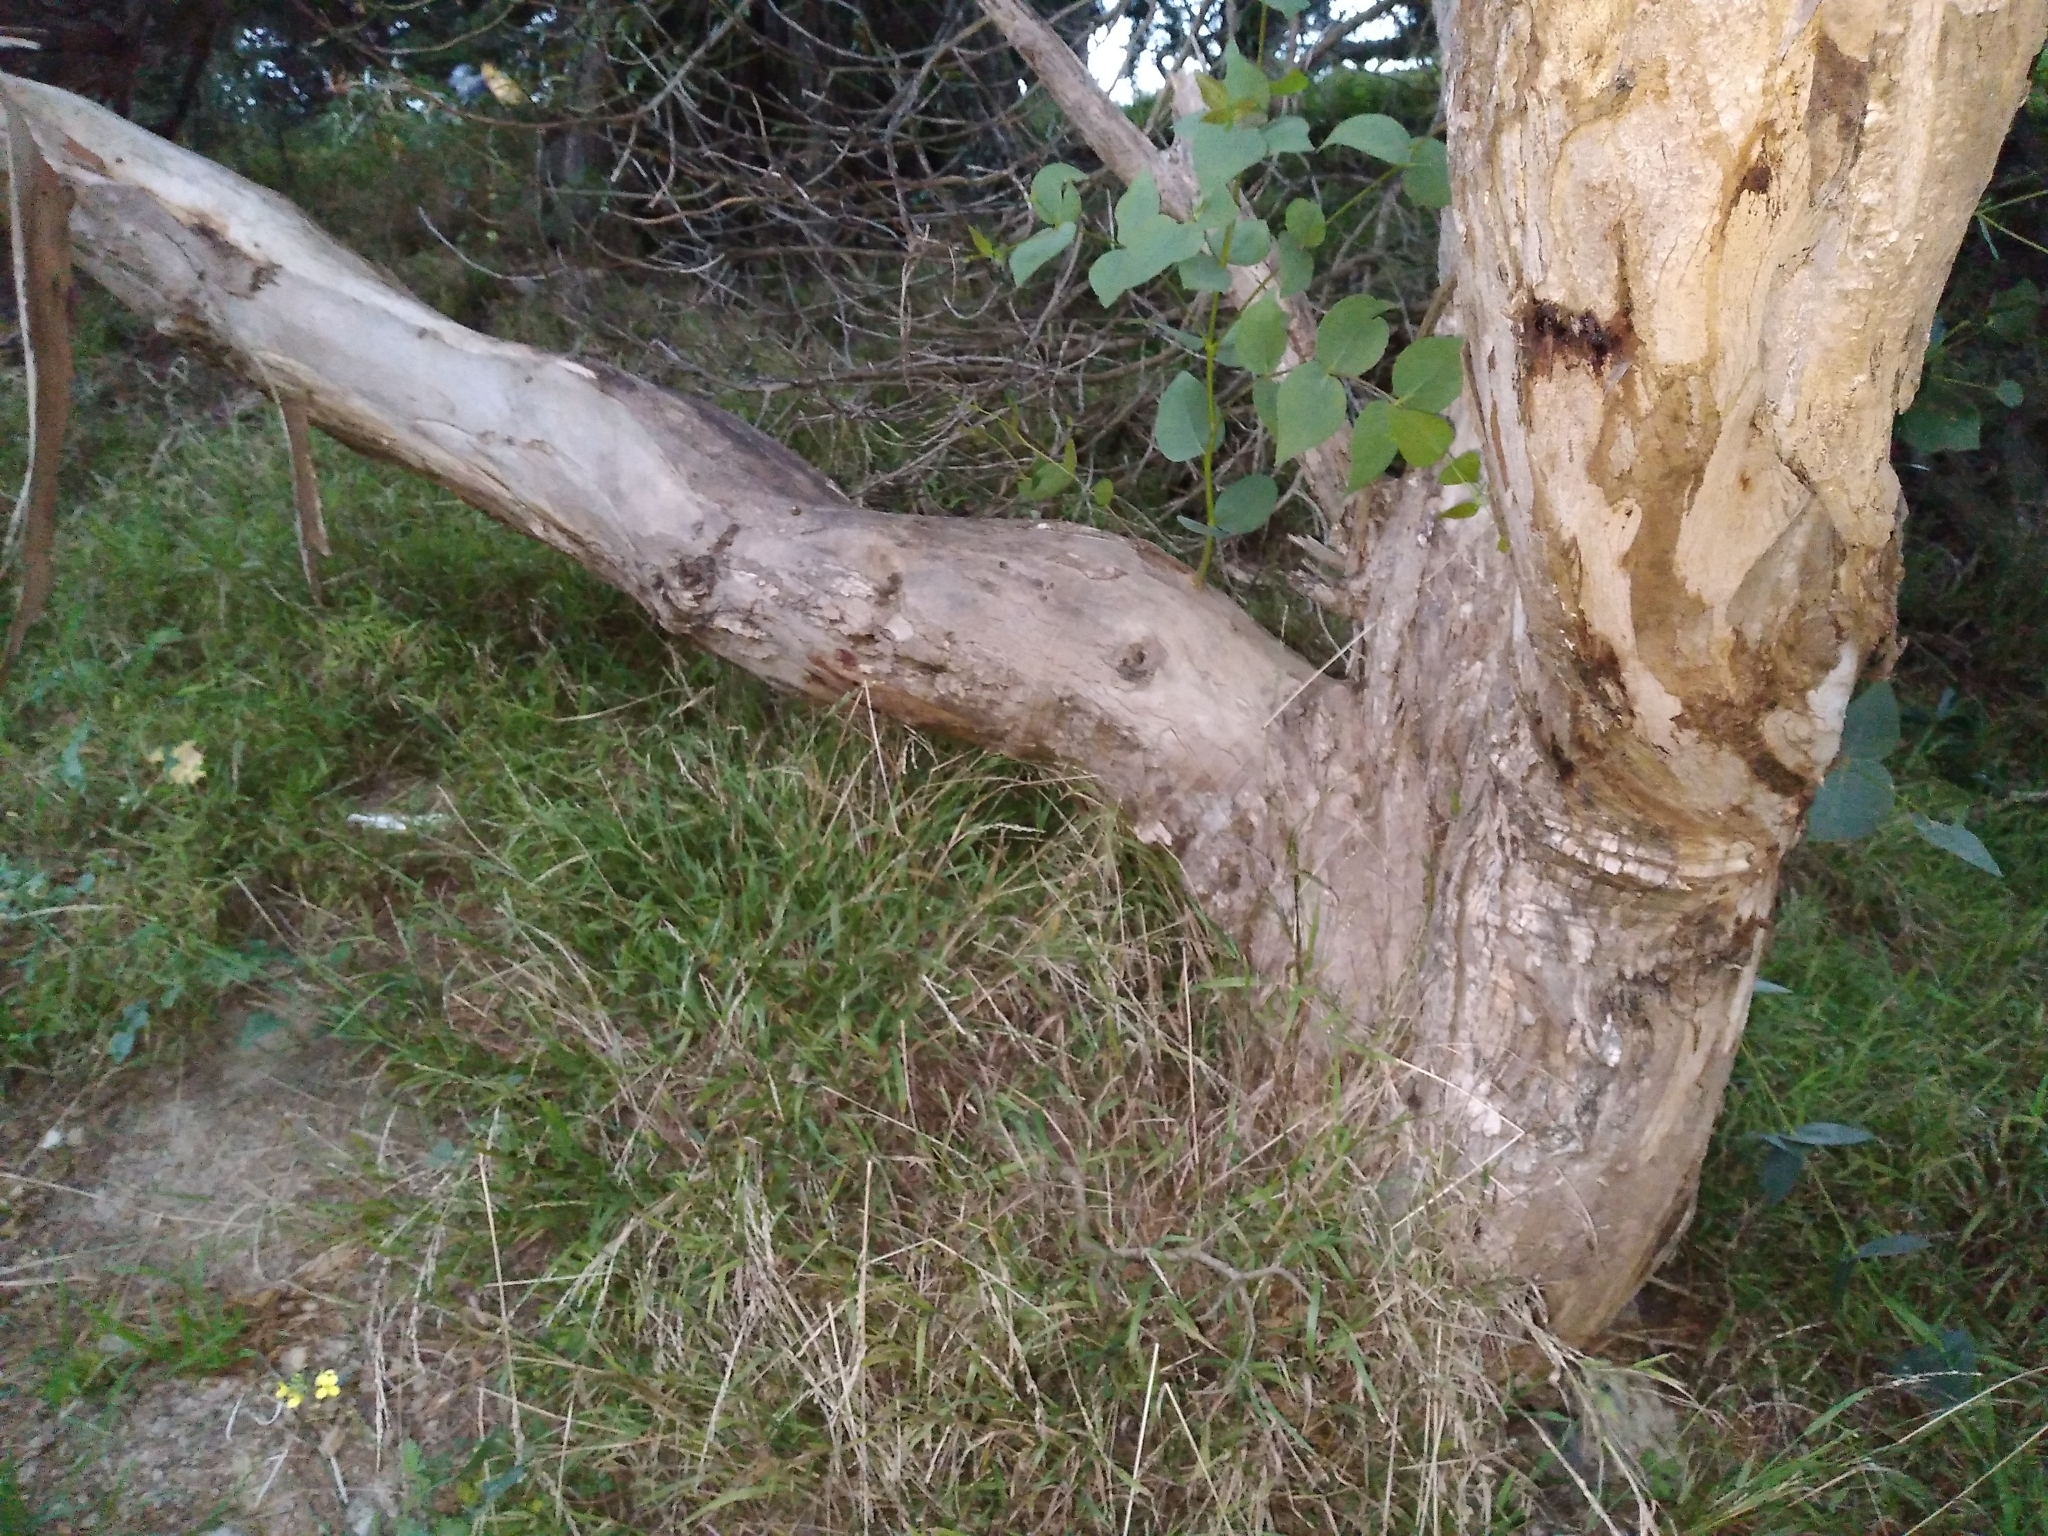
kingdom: Plantae
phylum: Tracheophyta
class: Magnoliopsida
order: Myrtales
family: Myrtaceae
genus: Eucalyptus
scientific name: Eucalyptus leucoxylon
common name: Blue gum
